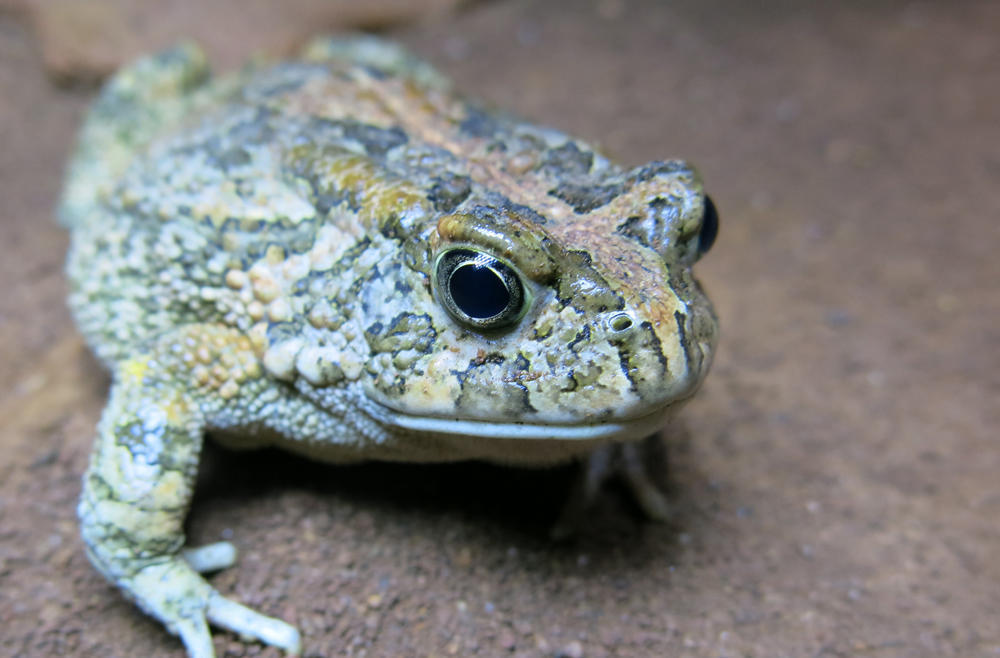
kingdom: Animalia
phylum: Chordata
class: Amphibia
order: Anura
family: Bufonidae
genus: Sclerophrys
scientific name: Sclerophrys gutturalis
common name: African common toad
